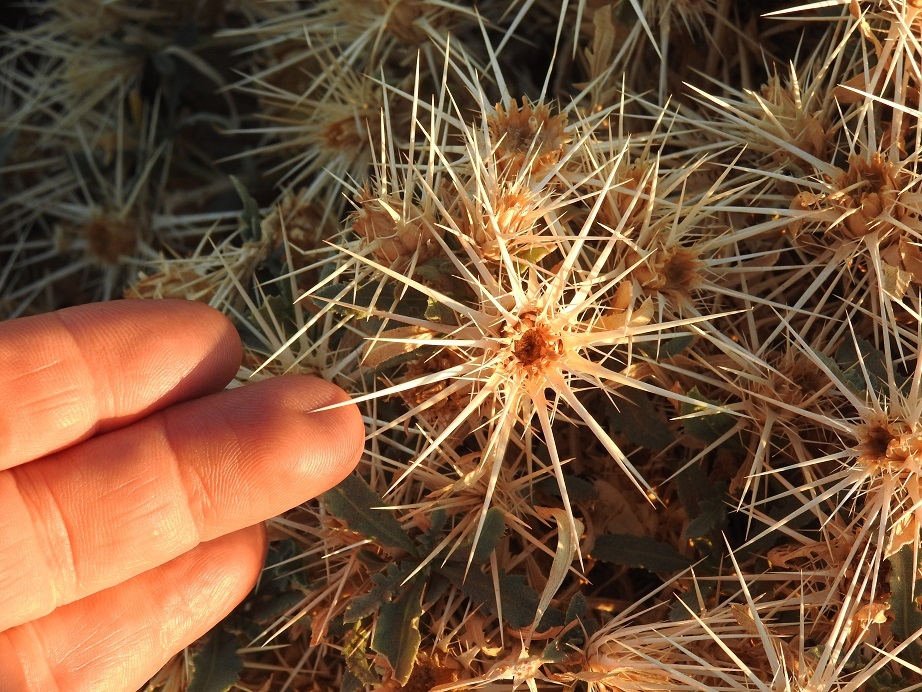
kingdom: Plantae
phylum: Tracheophyta
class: Magnoliopsida
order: Asterales
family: Asteraceae
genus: Centaurea
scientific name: Centaurea pungens
